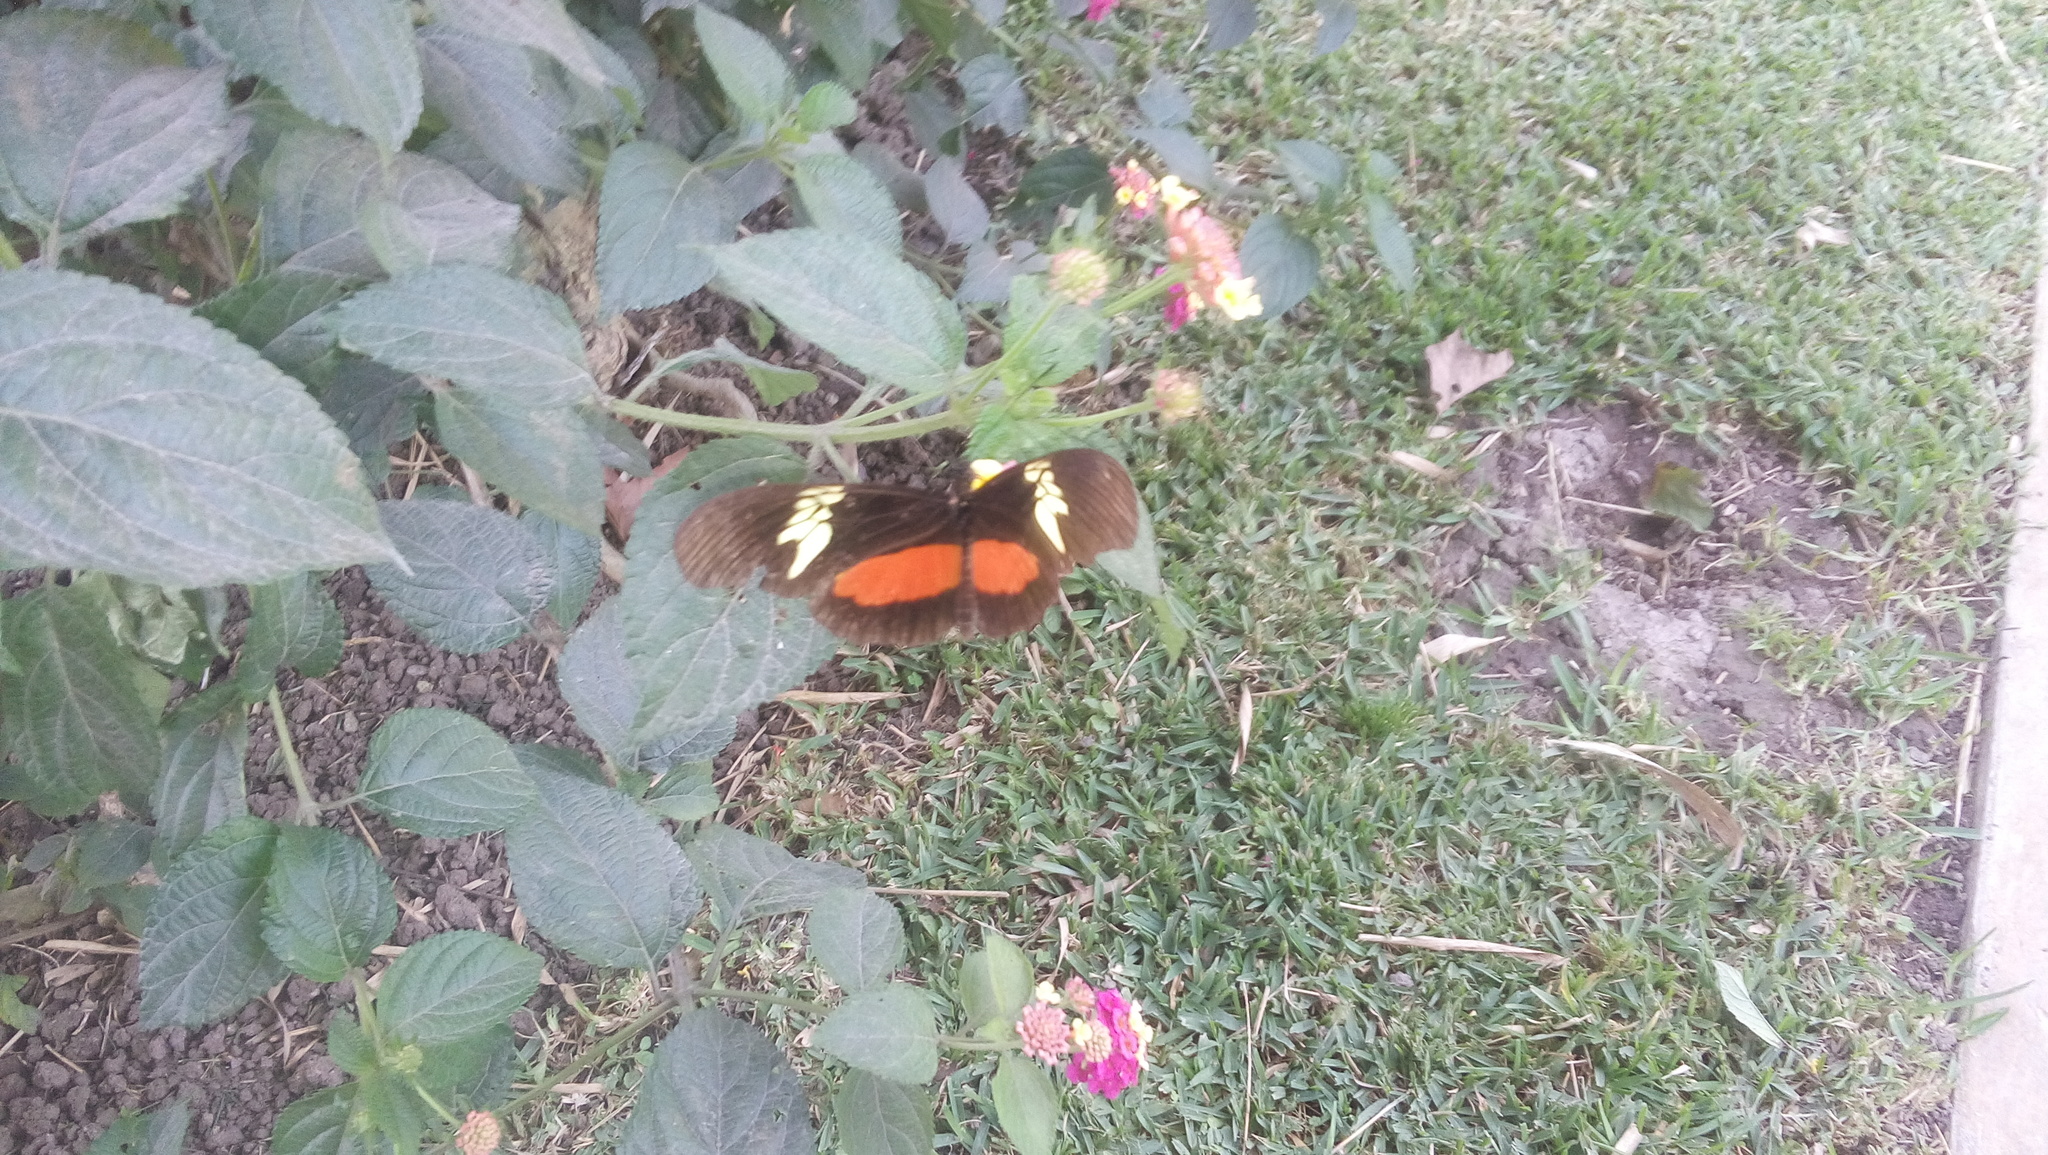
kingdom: Animalia
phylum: Arthropoda
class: Insecta
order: Lepidoptera
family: Nymphalidae
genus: Heliconius
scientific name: Heliconius hortense
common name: Mexican longwing
